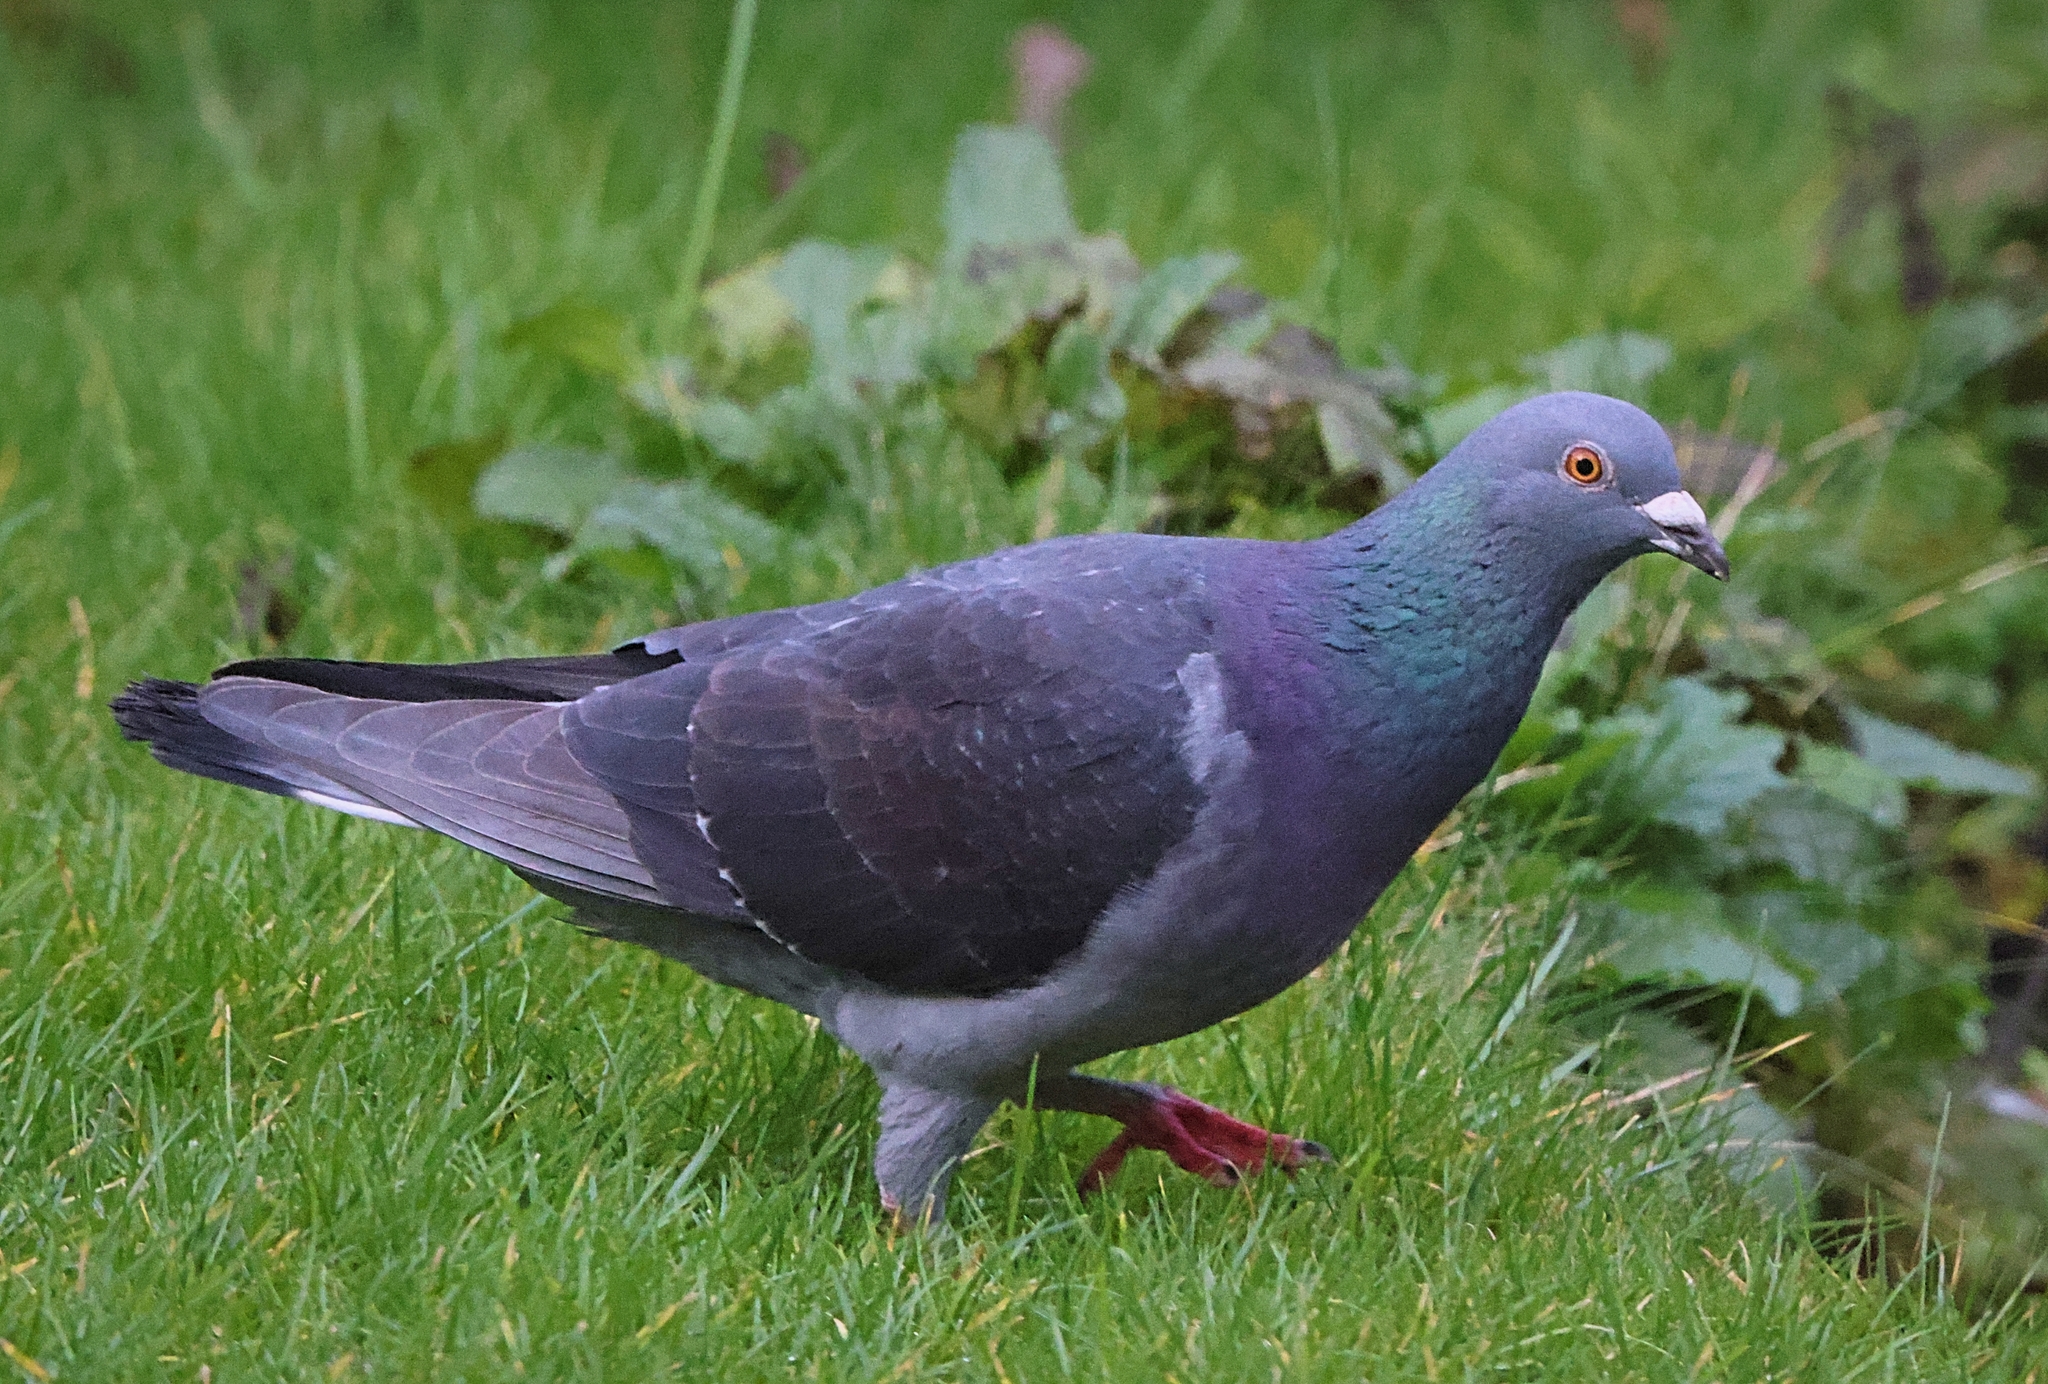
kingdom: Animalia
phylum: Chordata
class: Aves
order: Columbiformes
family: Columbidae
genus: Columba
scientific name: Columba livia
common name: Rock pigeon
